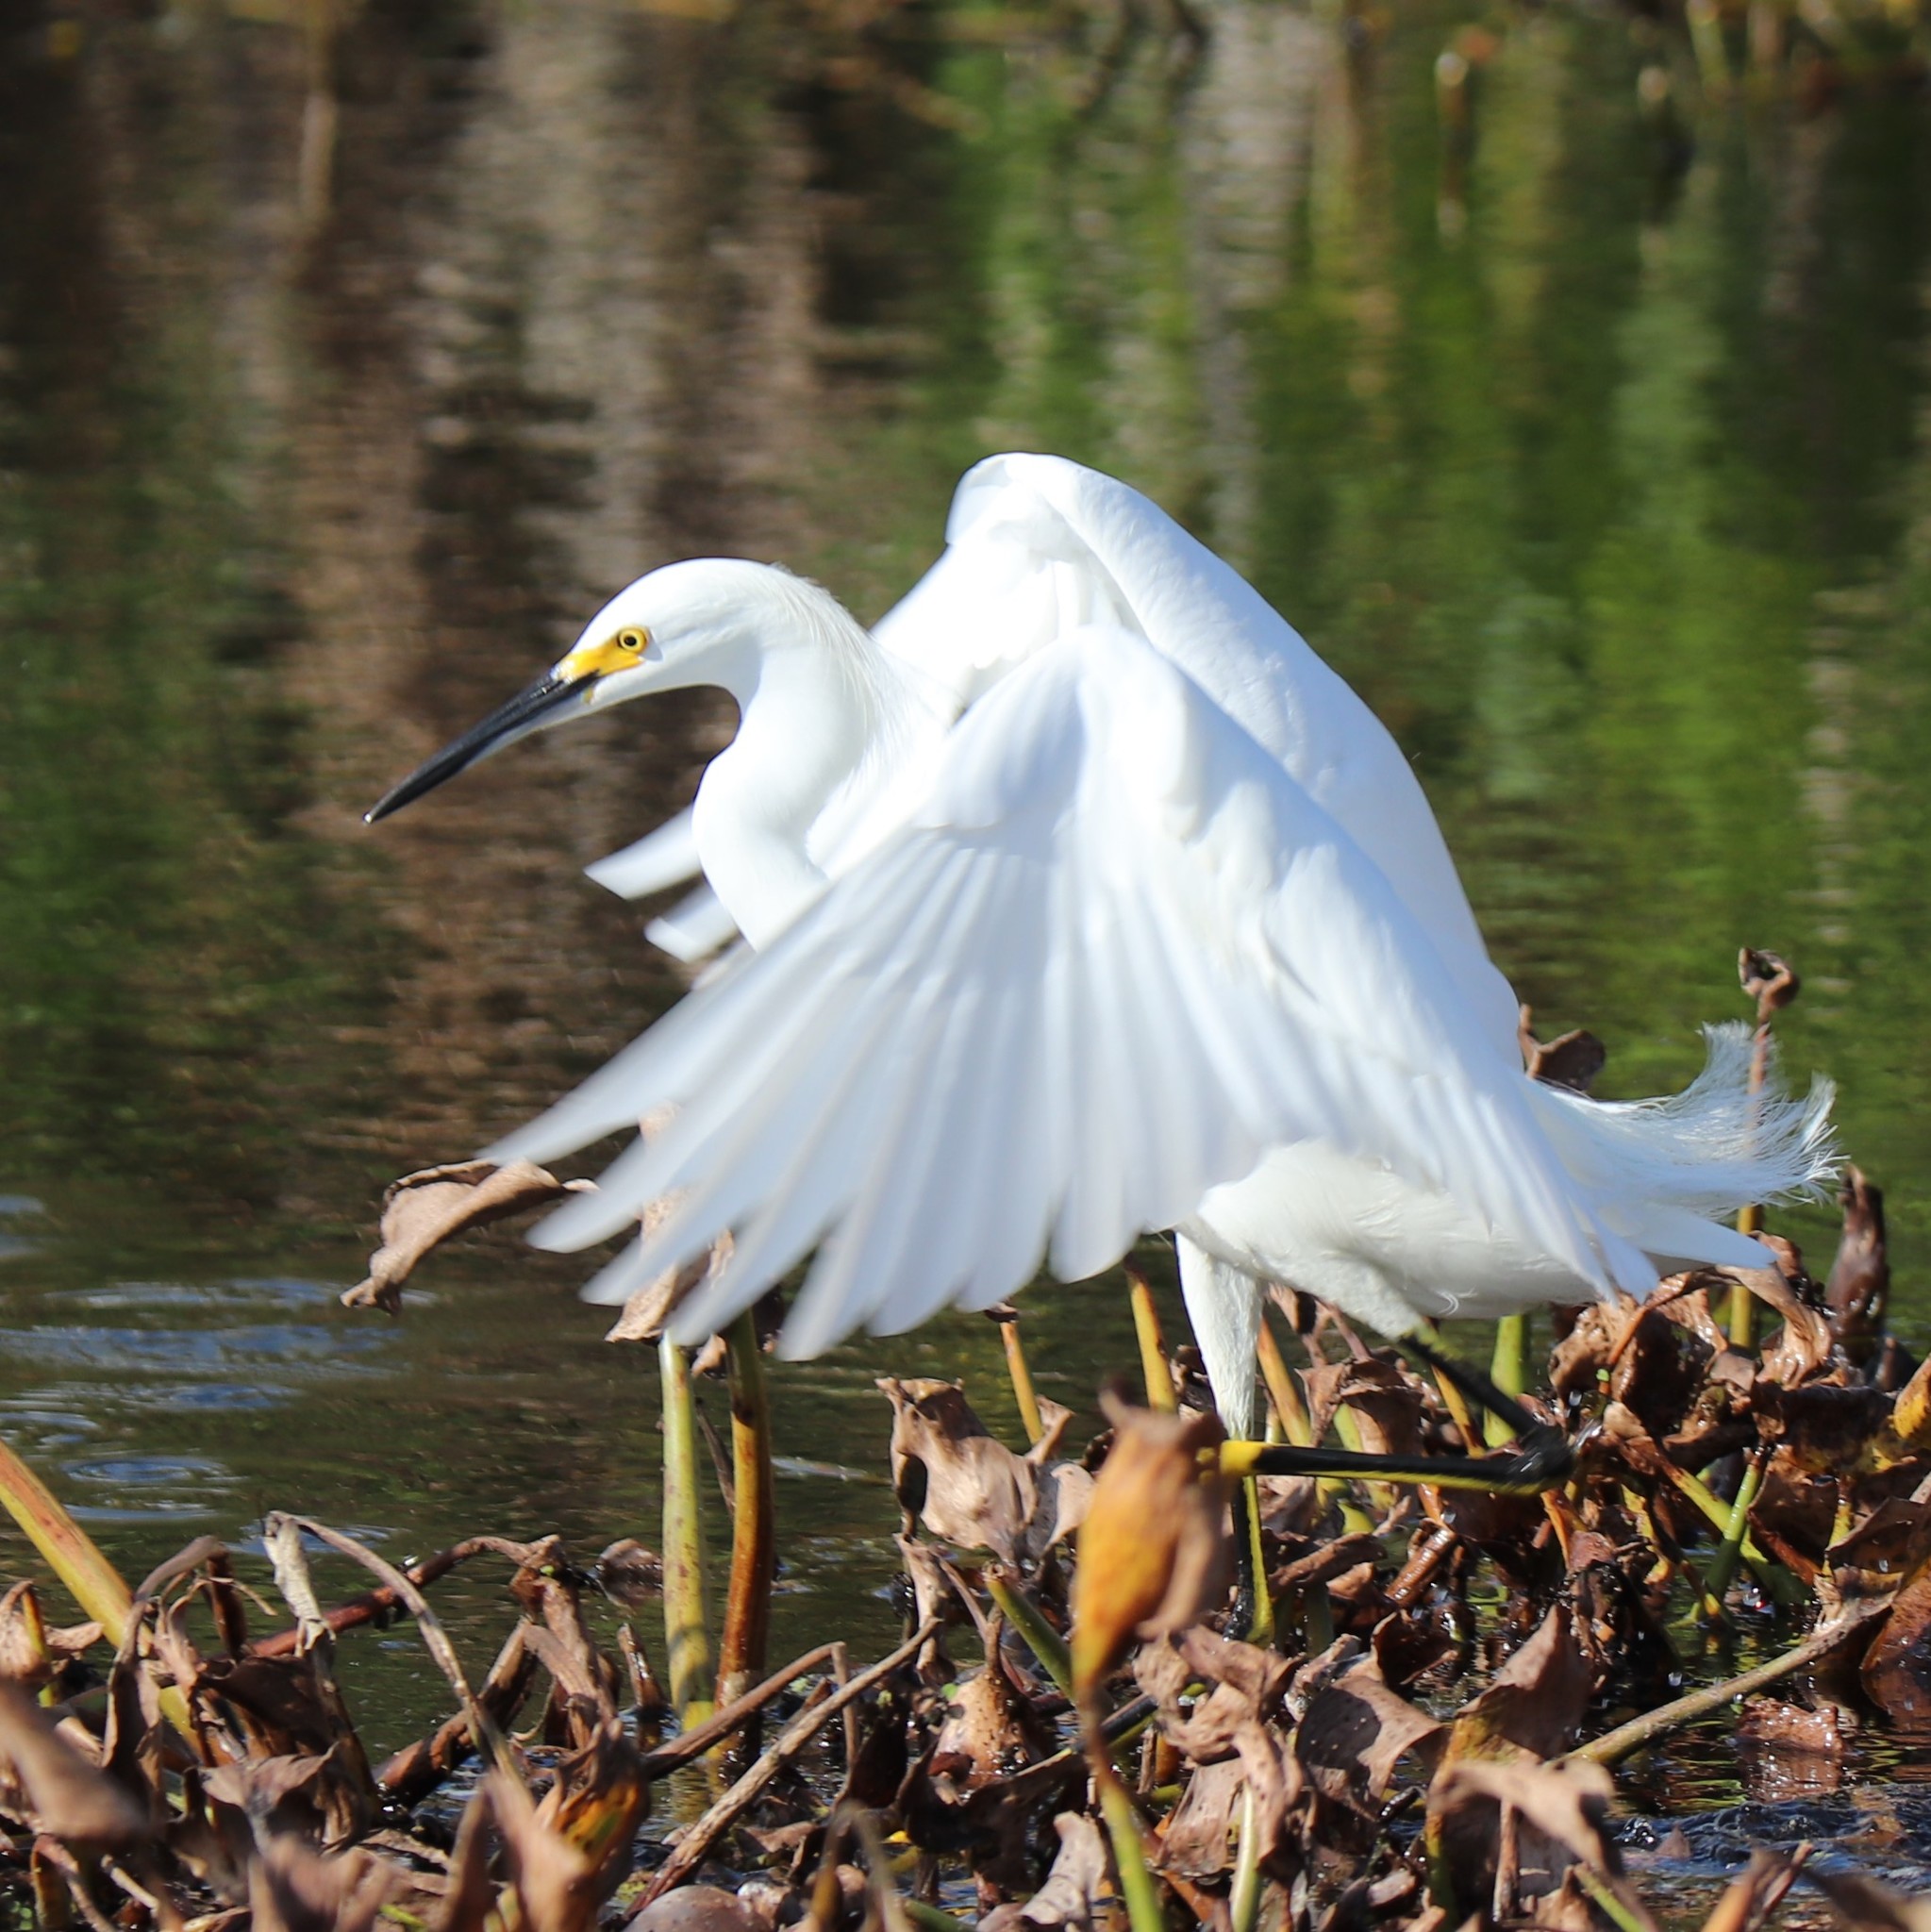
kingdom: Animalia
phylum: Chordata
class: Aves
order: Pelecaniformes
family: Ardeidae
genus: Egretta
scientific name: Egretta thula
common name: Snowy egret
